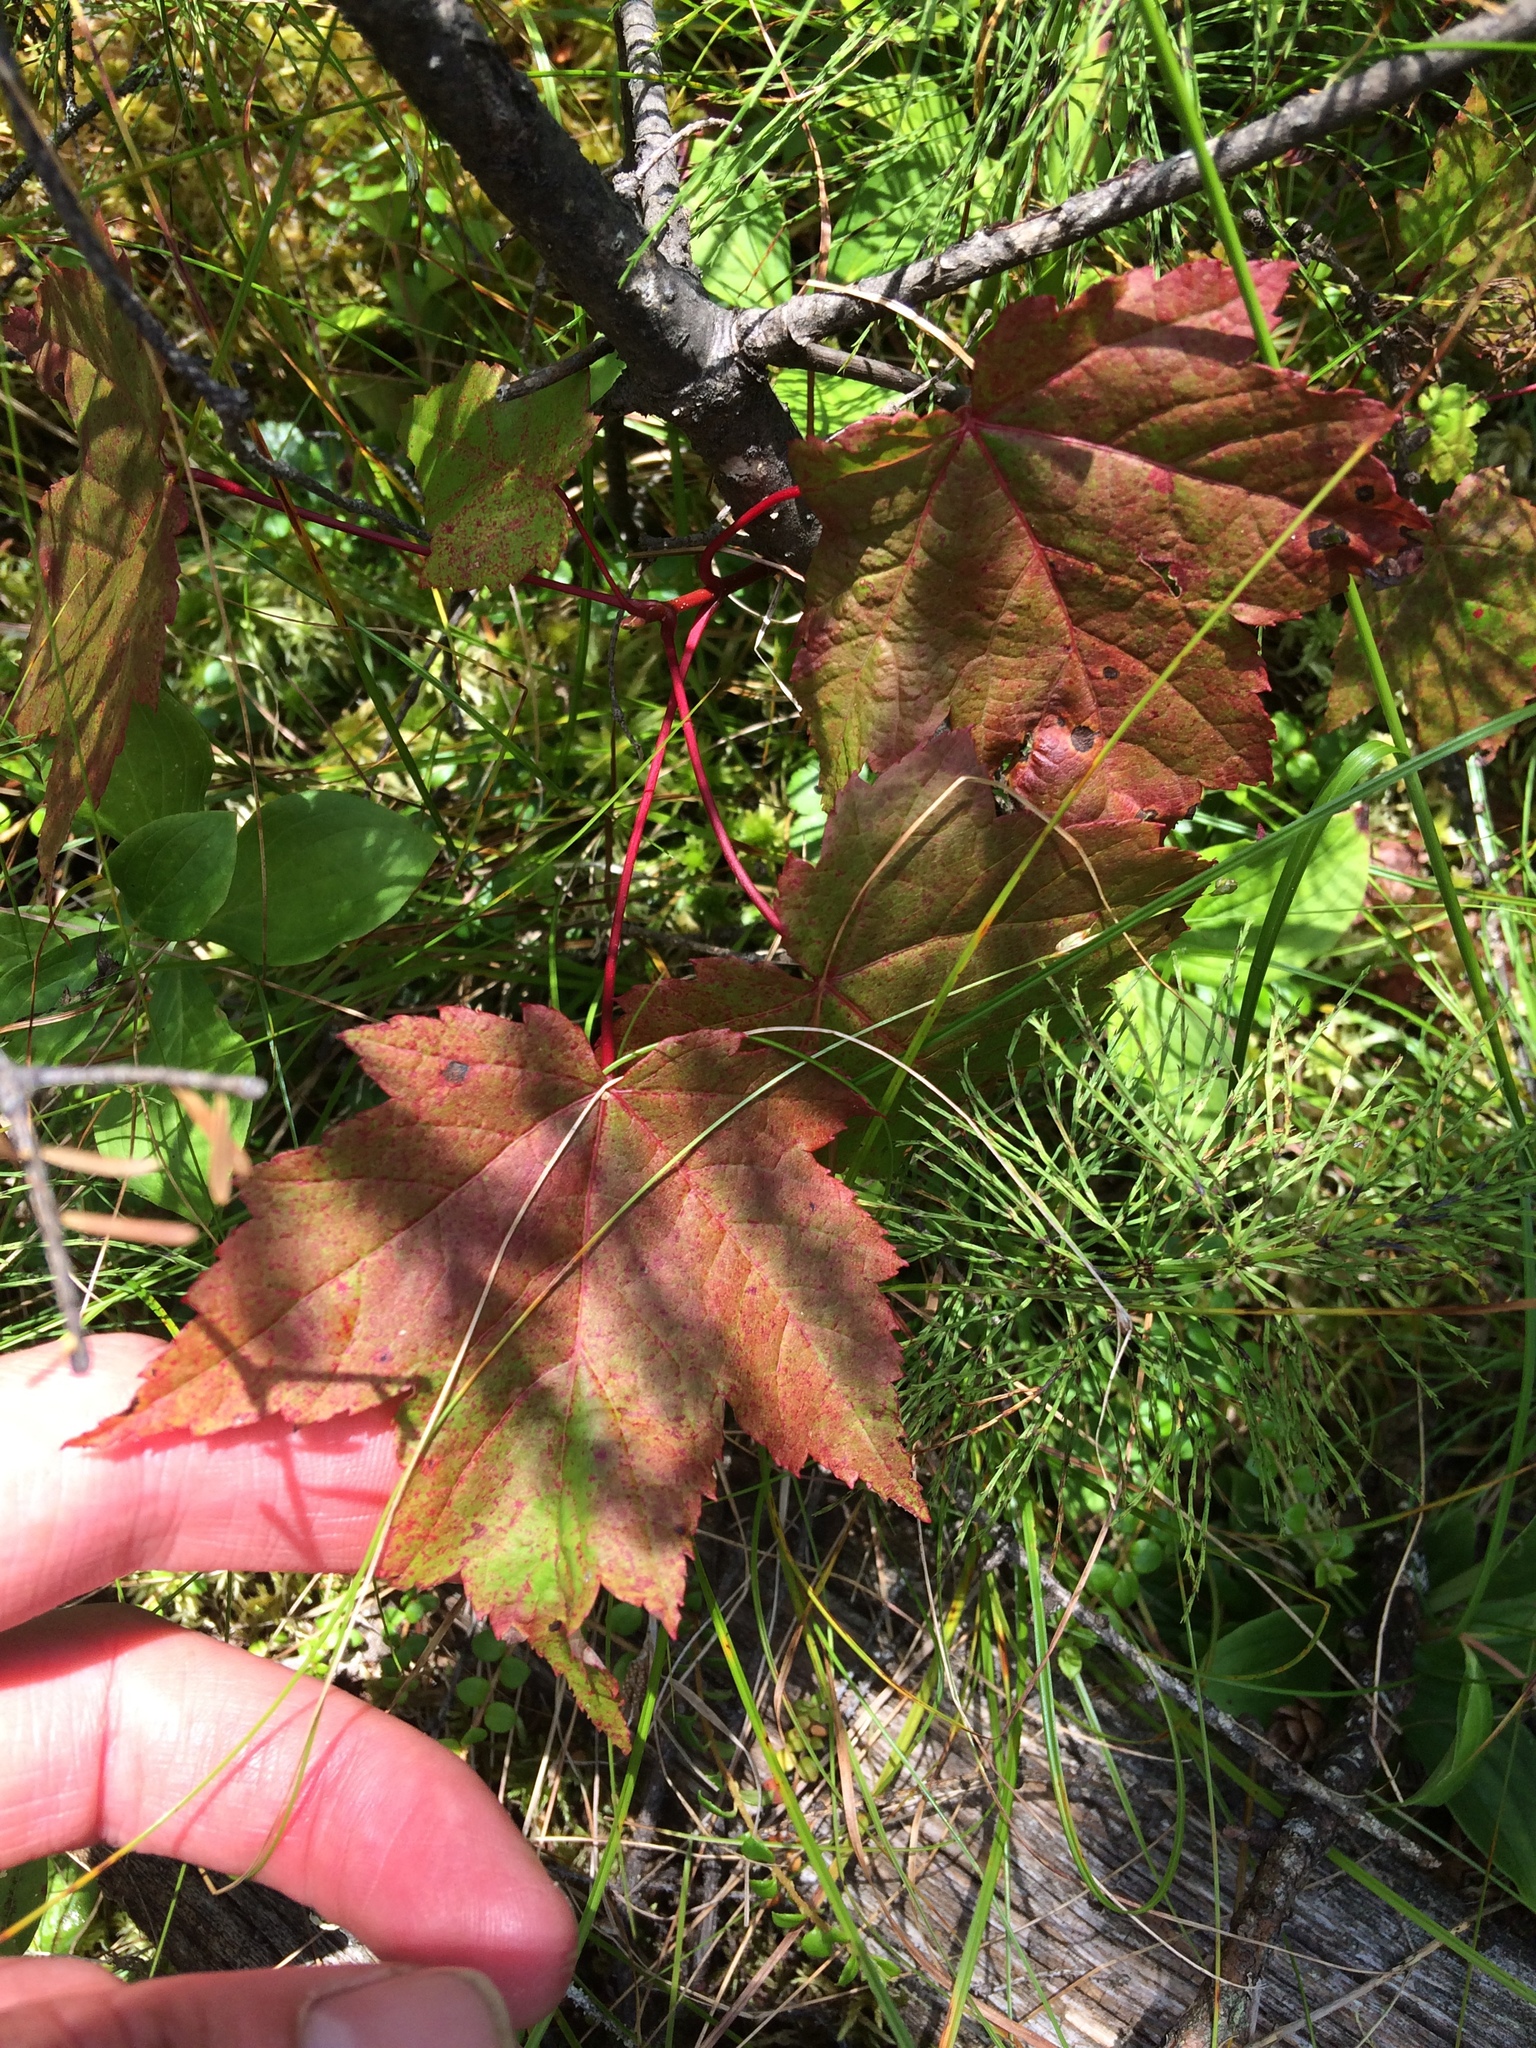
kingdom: Plantae
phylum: Tracheophyta
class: Magnoliopsida
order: Sapindales
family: Sapindaceae
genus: Acer
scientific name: Acer rubrum
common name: Red maple
